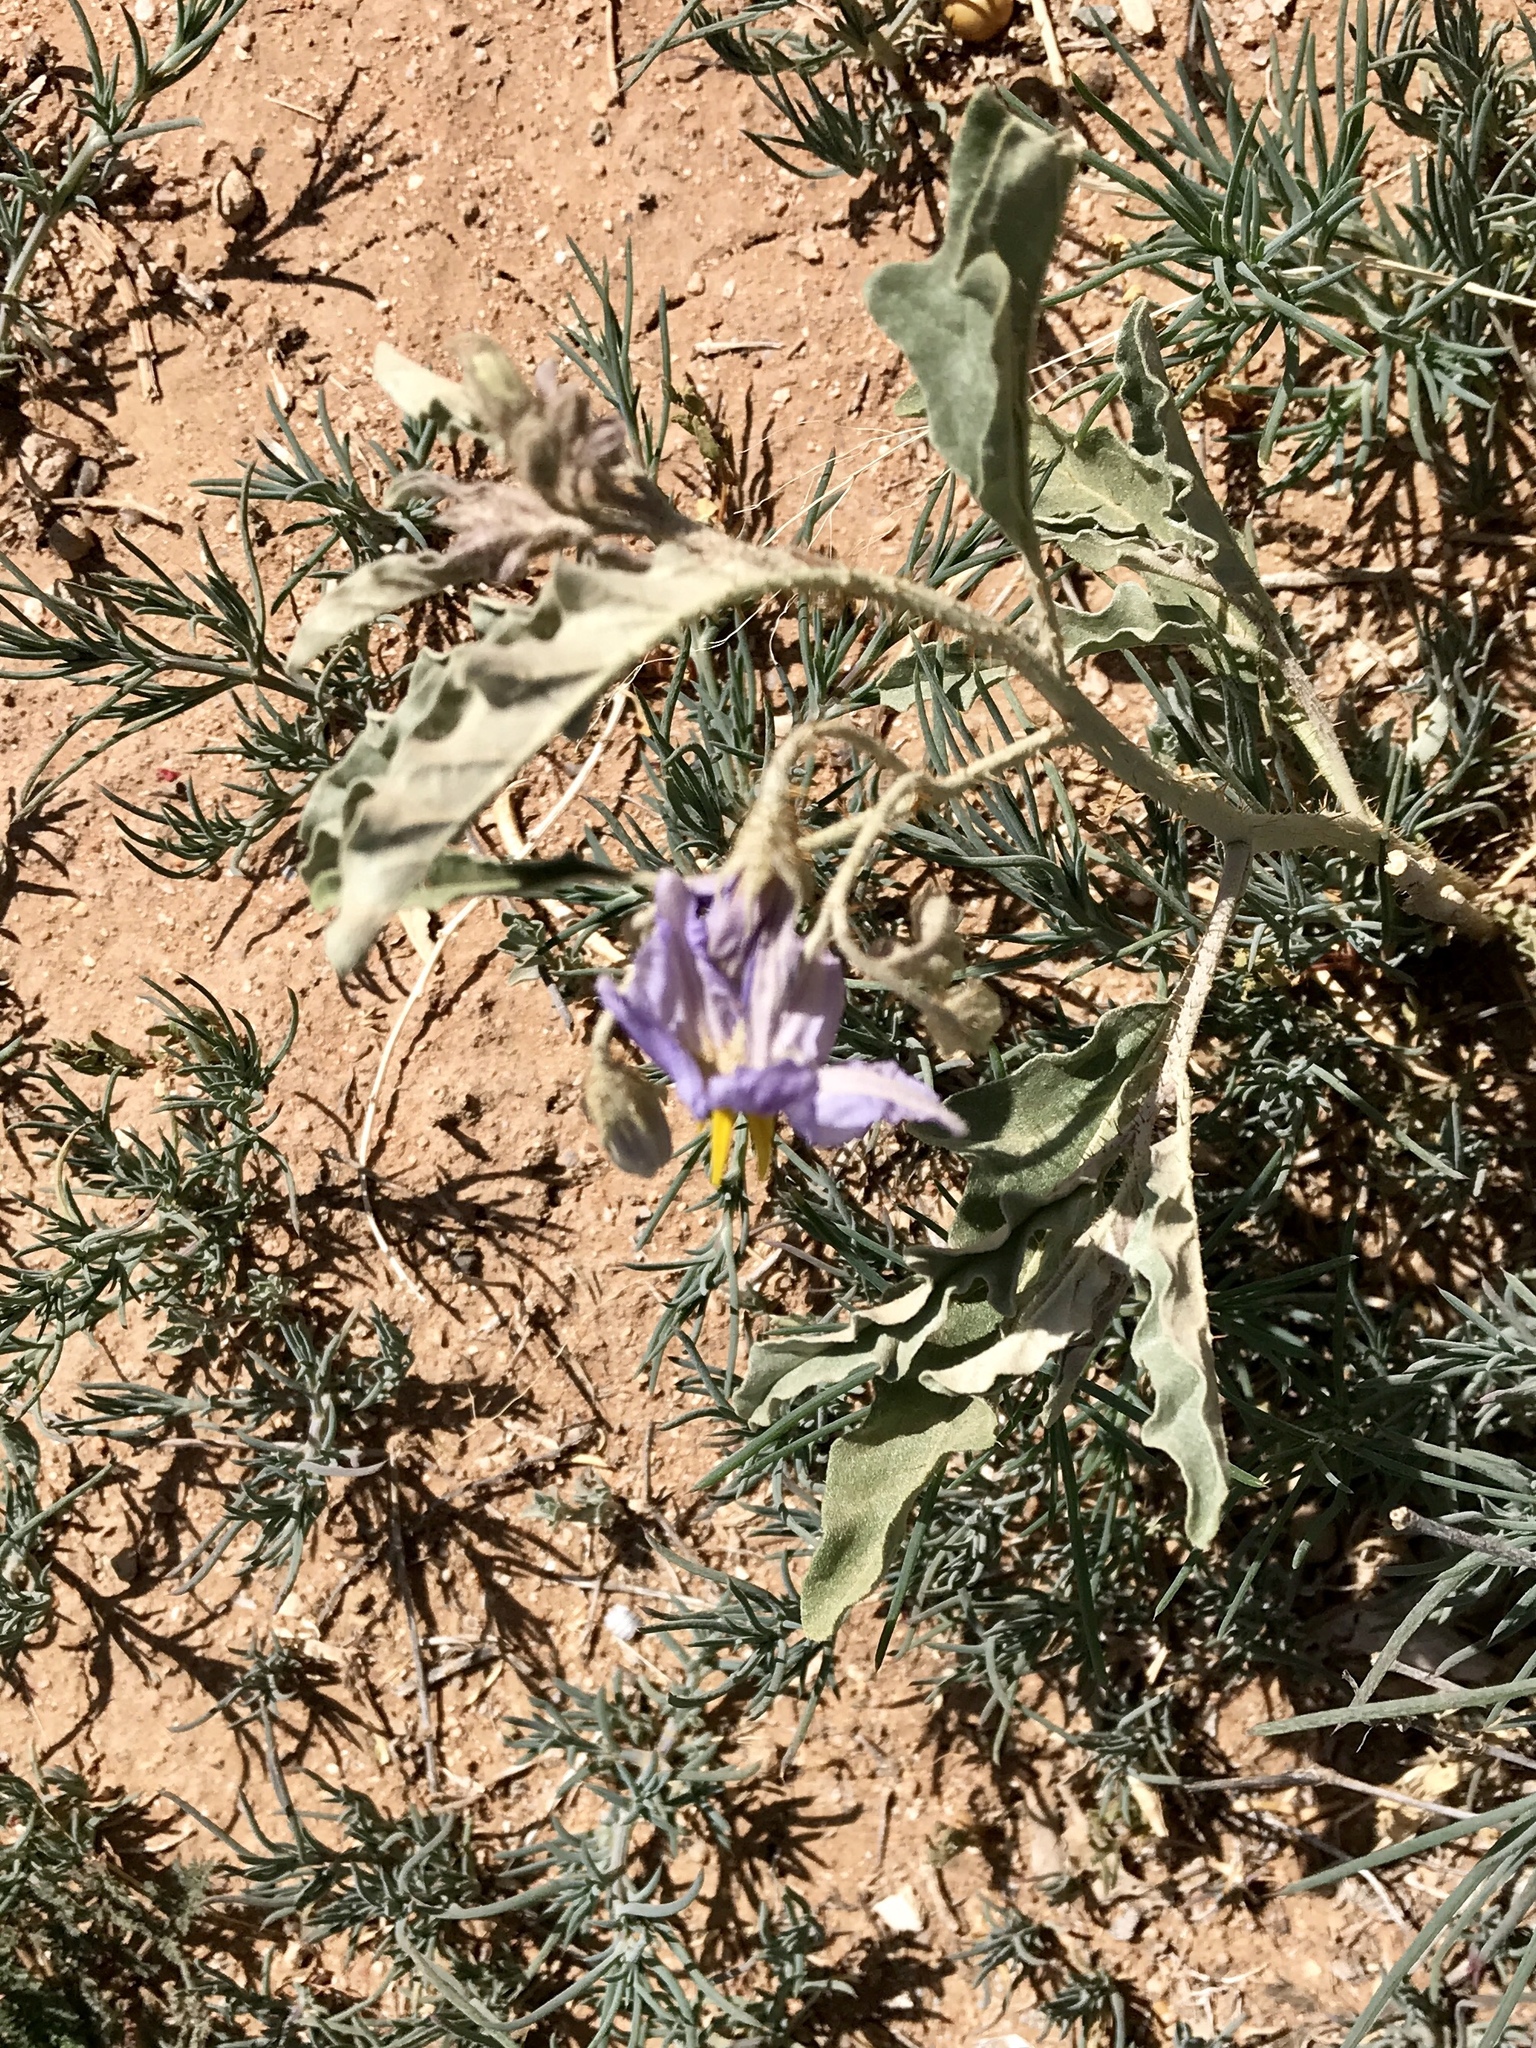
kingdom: Plantae
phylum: Tracheophyta
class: Magnoliopsida
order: Solanales
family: Solanaceae
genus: Solanum
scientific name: Solanum elaeagnifolium
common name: Silverleaf nightshade
